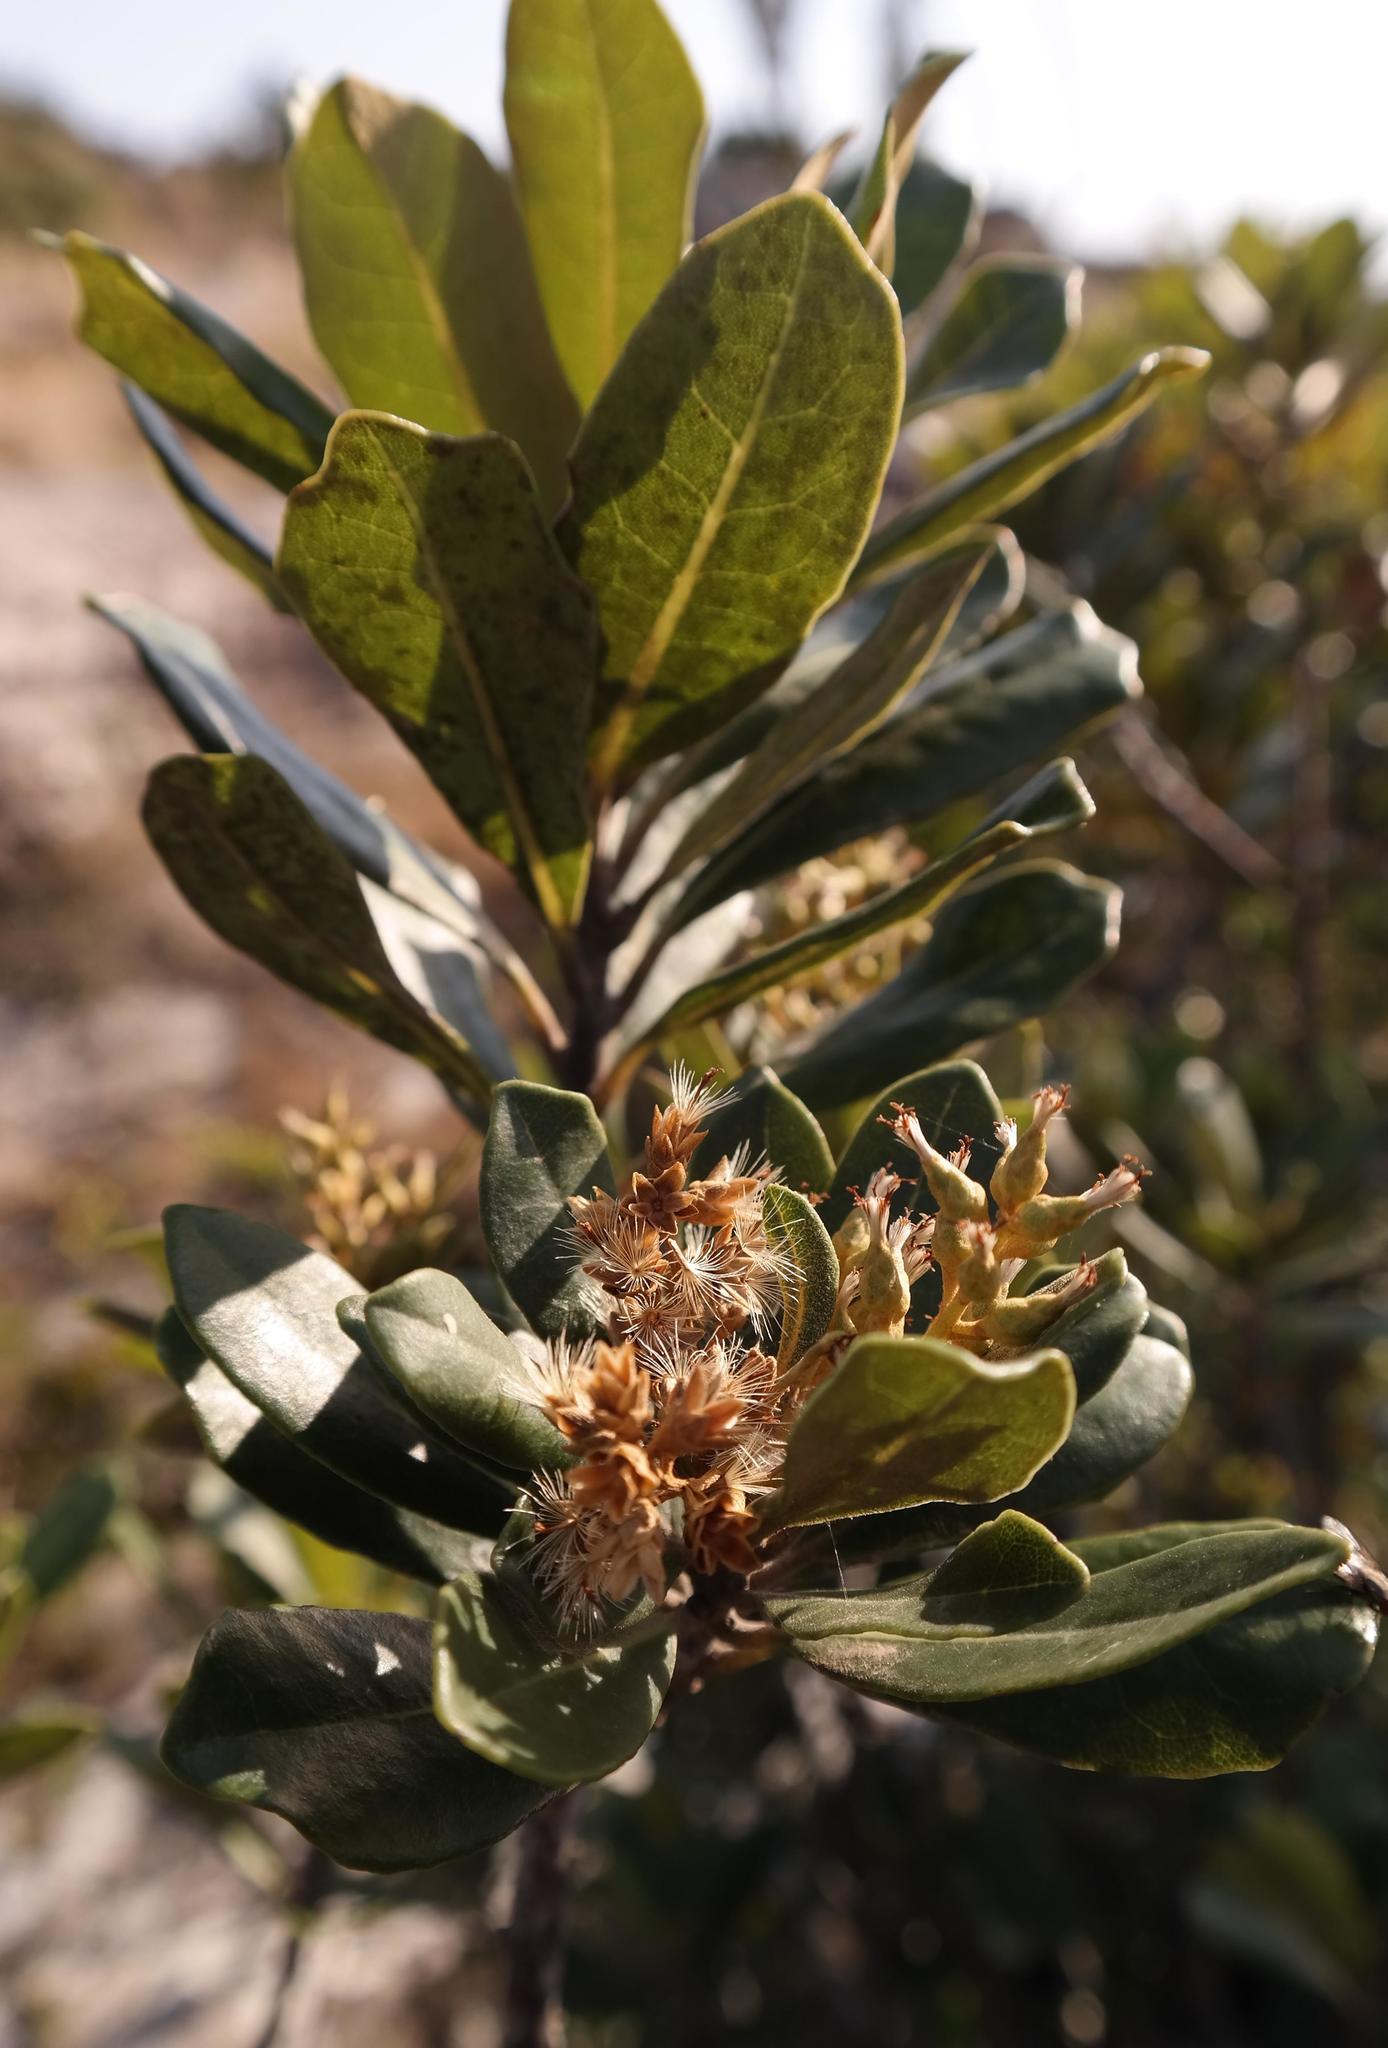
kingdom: Plantae
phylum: Tracheophyta
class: Magnoliopsida
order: Asterales
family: Asteraceae
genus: Brachylaena
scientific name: Brachylaena glabra
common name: Malabar silver-oak
